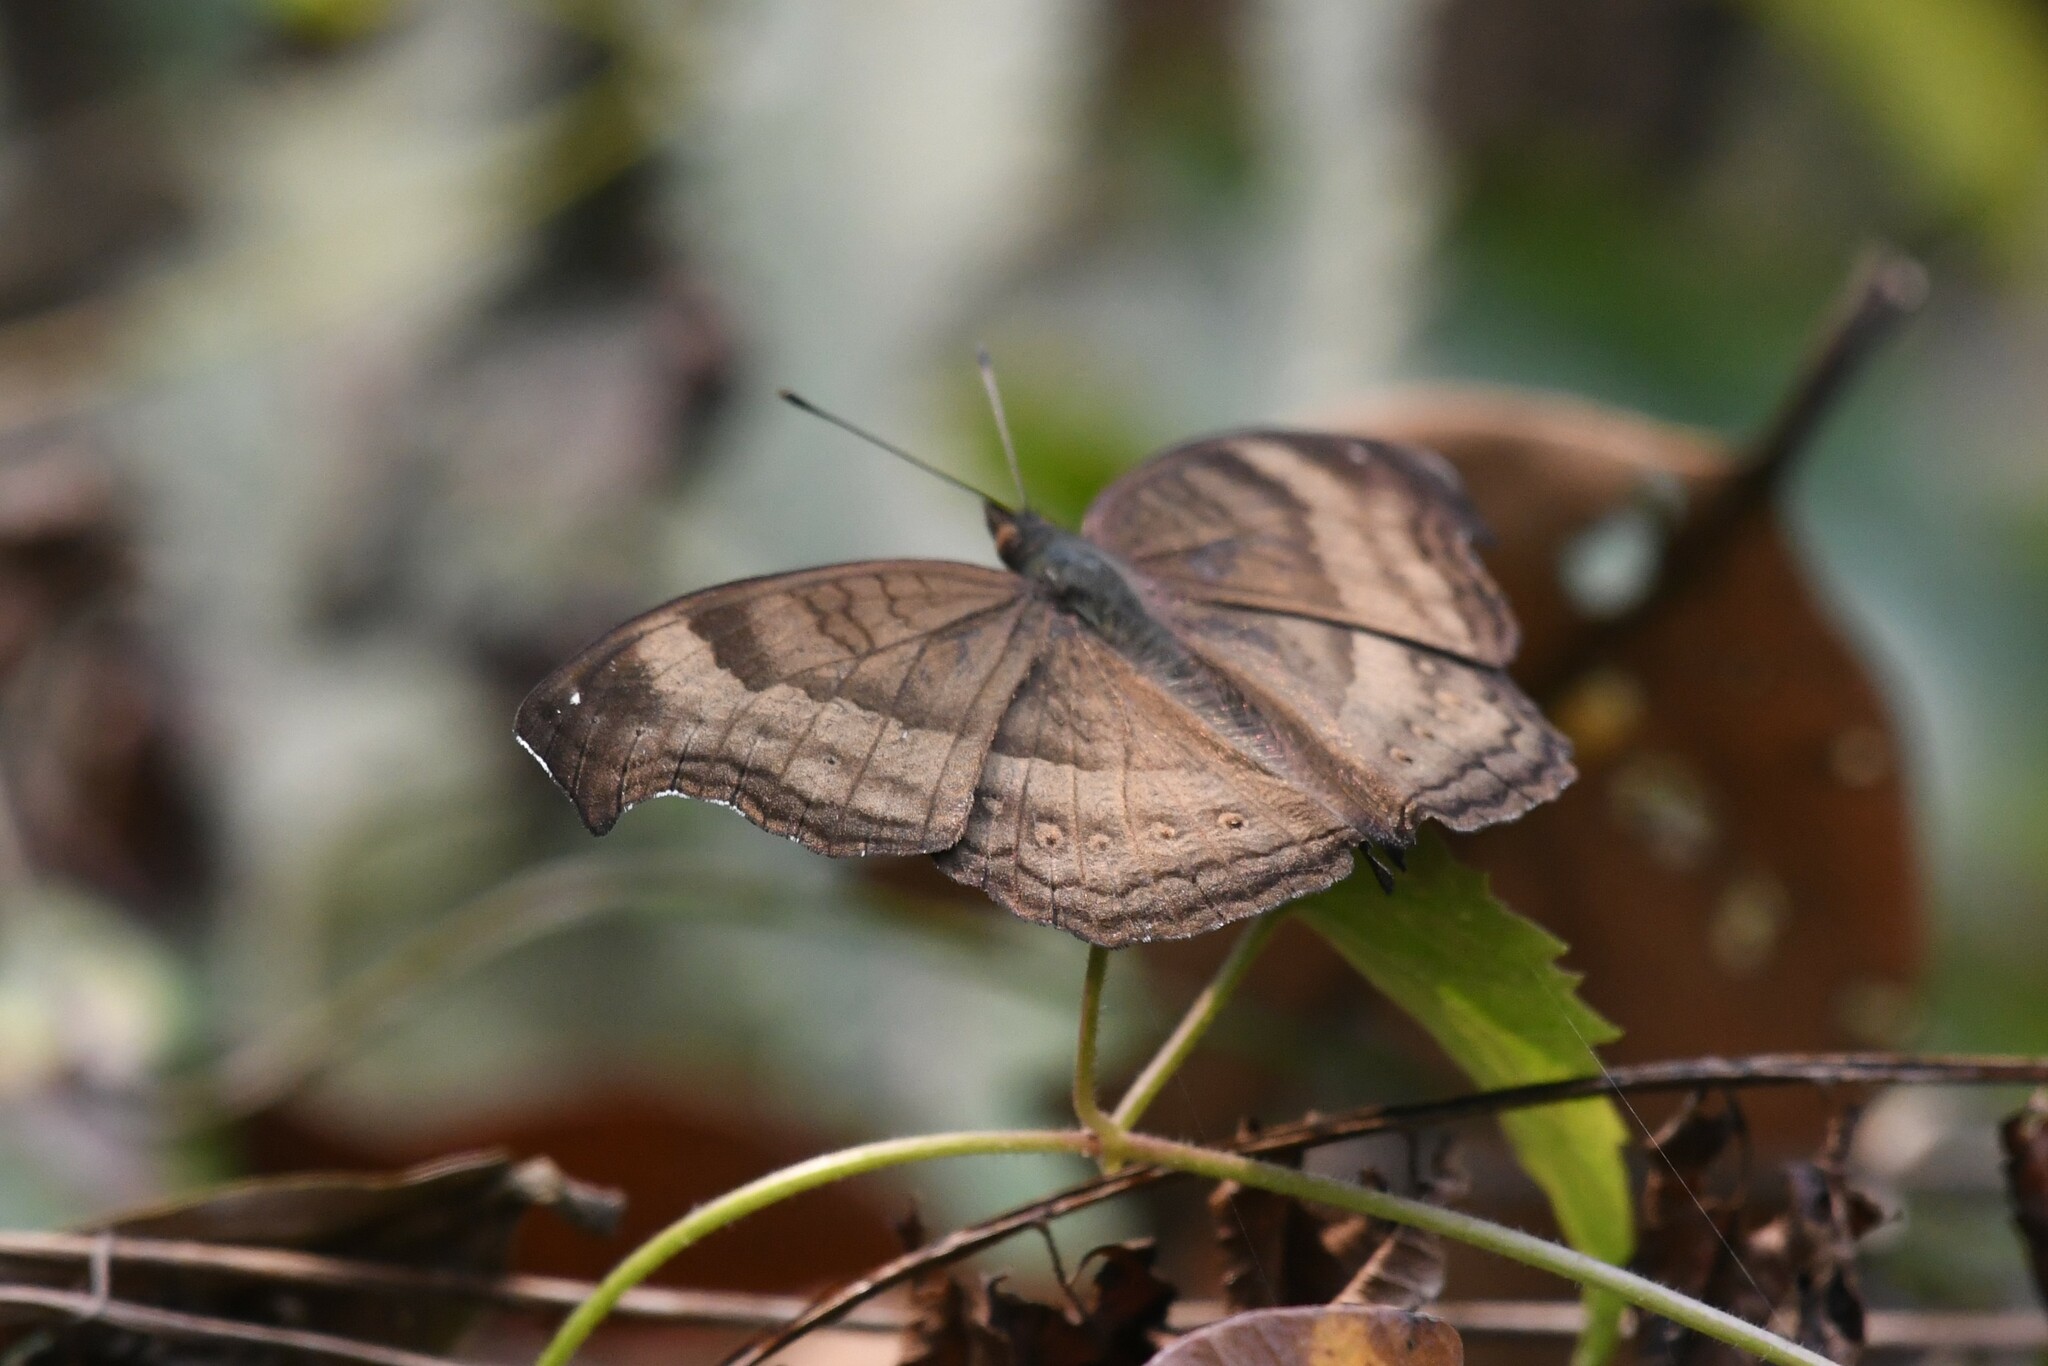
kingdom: Animalia
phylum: Arthropoda
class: Insecta
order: Lepidoptera
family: Nymphalidae
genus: Junonia
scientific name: Junonia iphita
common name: Chocolate pansy
